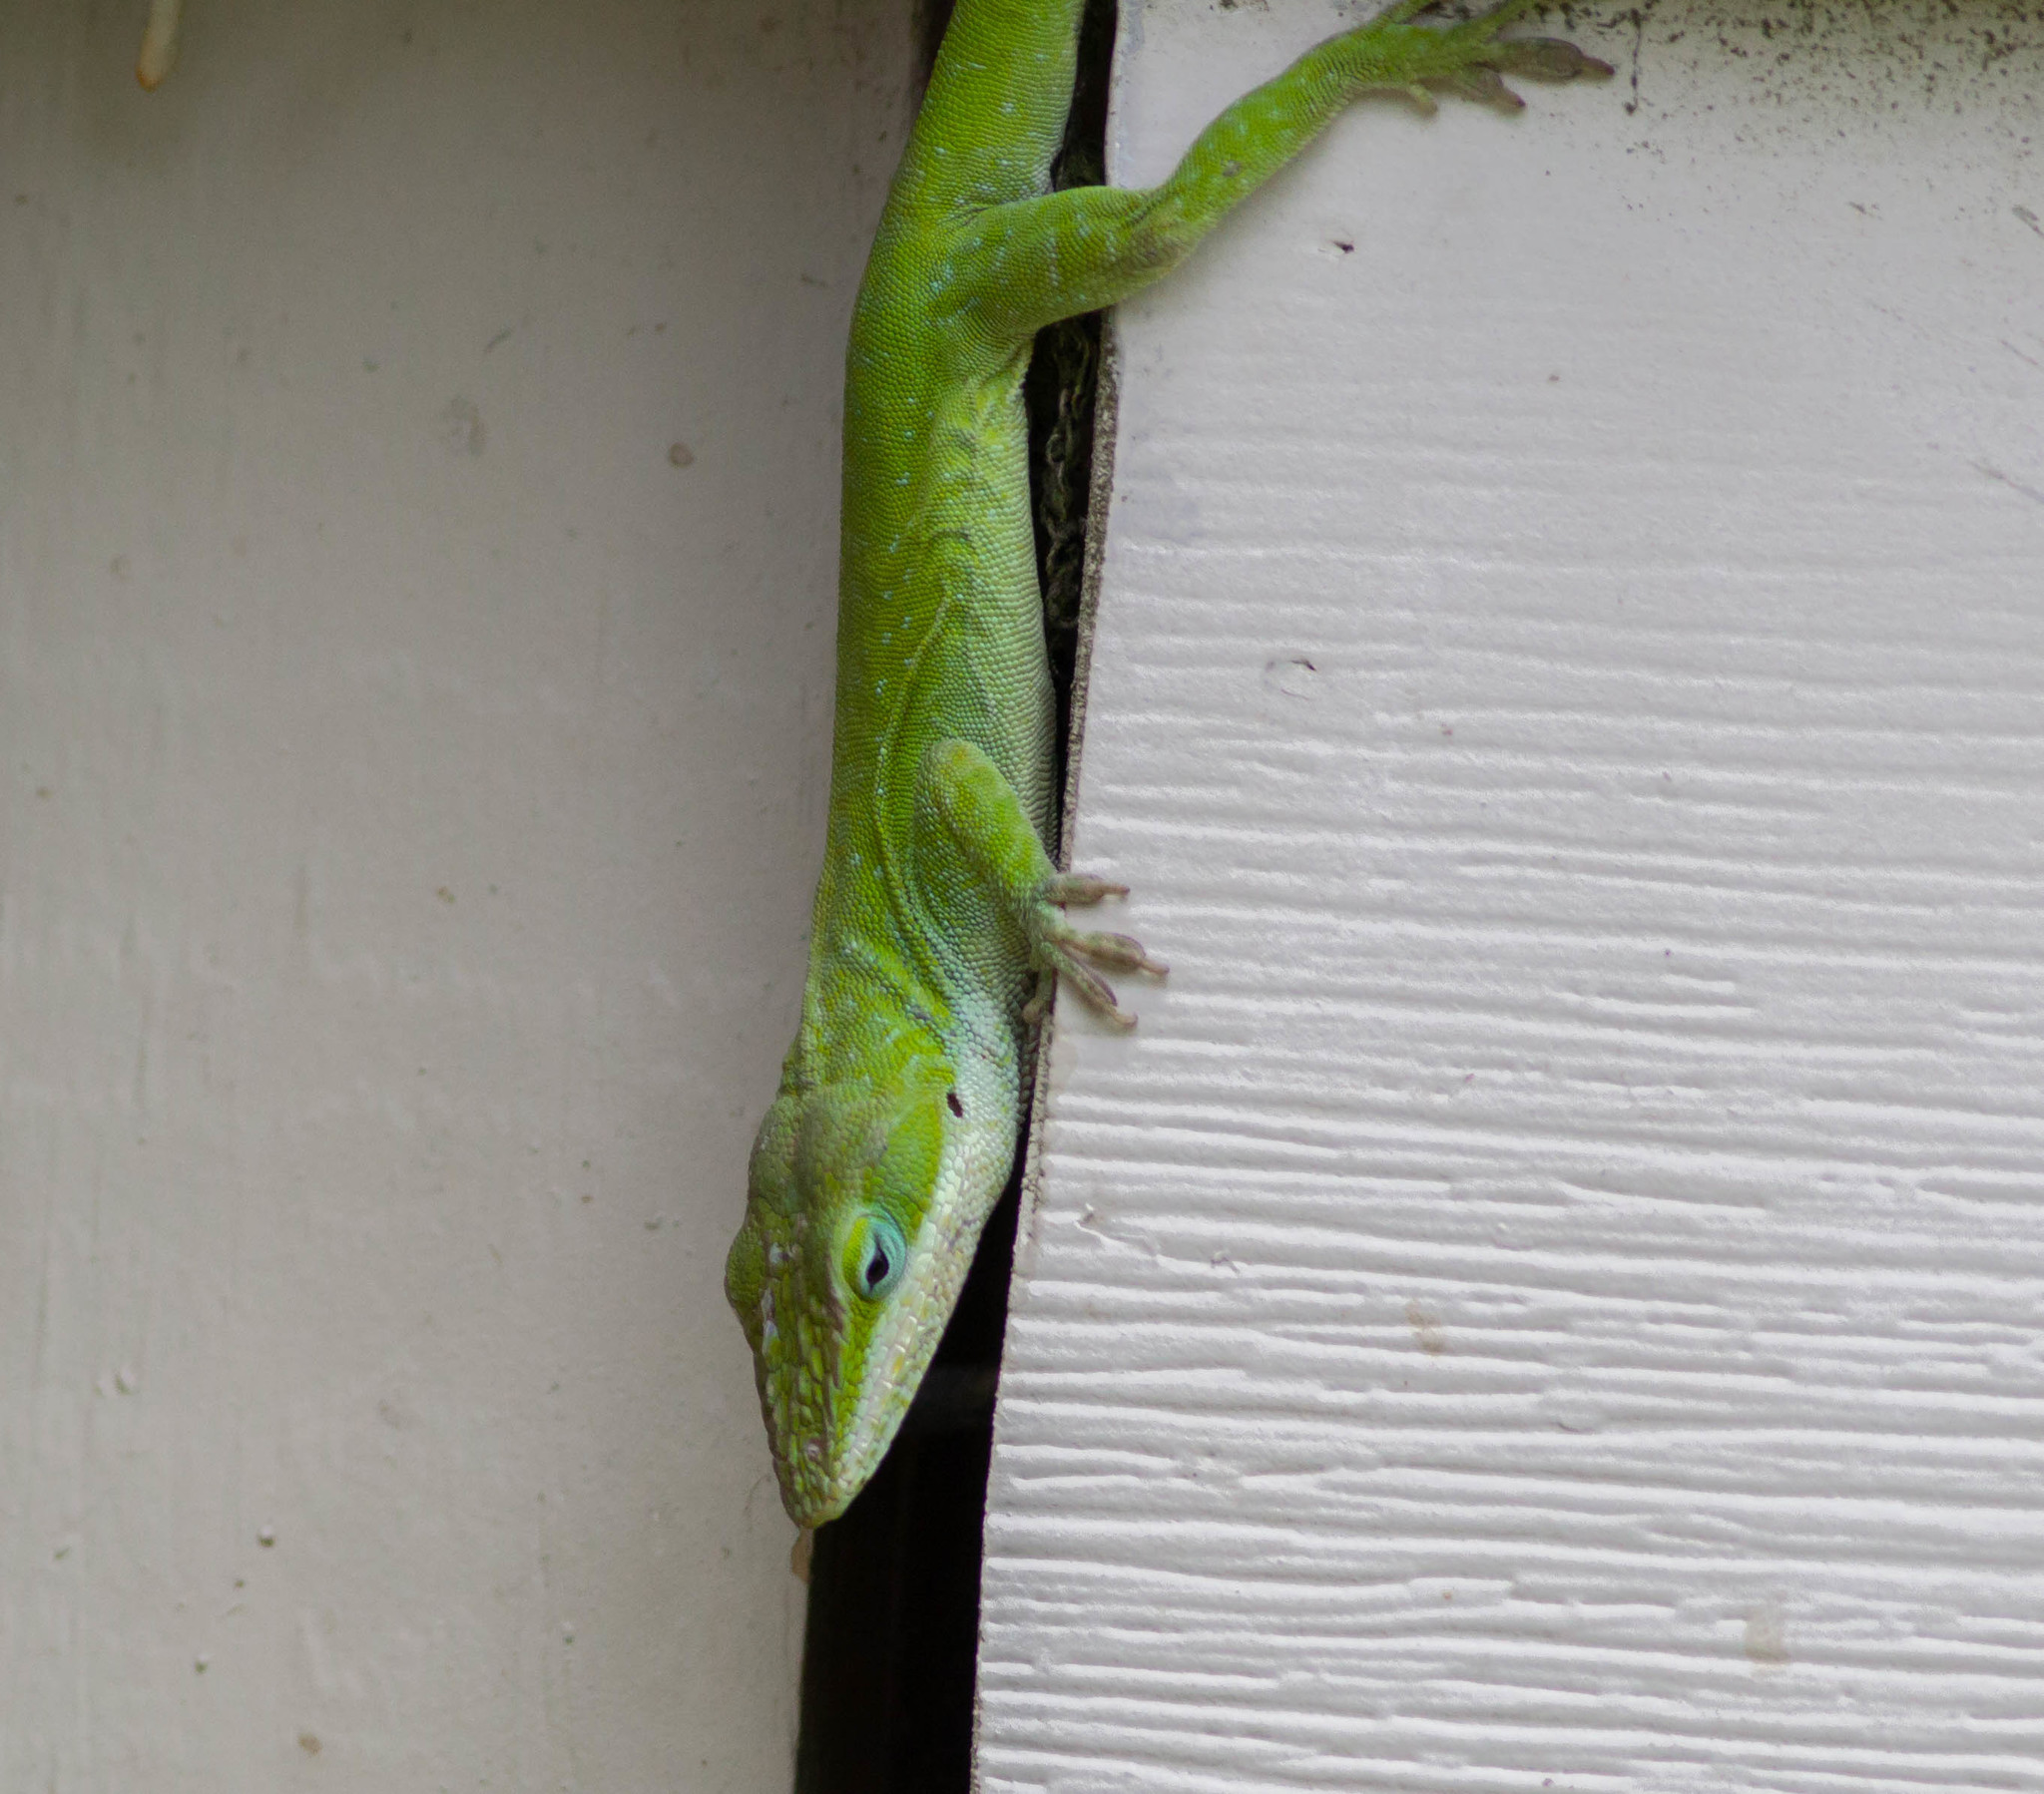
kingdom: Animalia
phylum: Chordata
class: Squamata
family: Dactyloidae
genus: Anolis
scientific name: Anolis carolinensis
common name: Green anole
